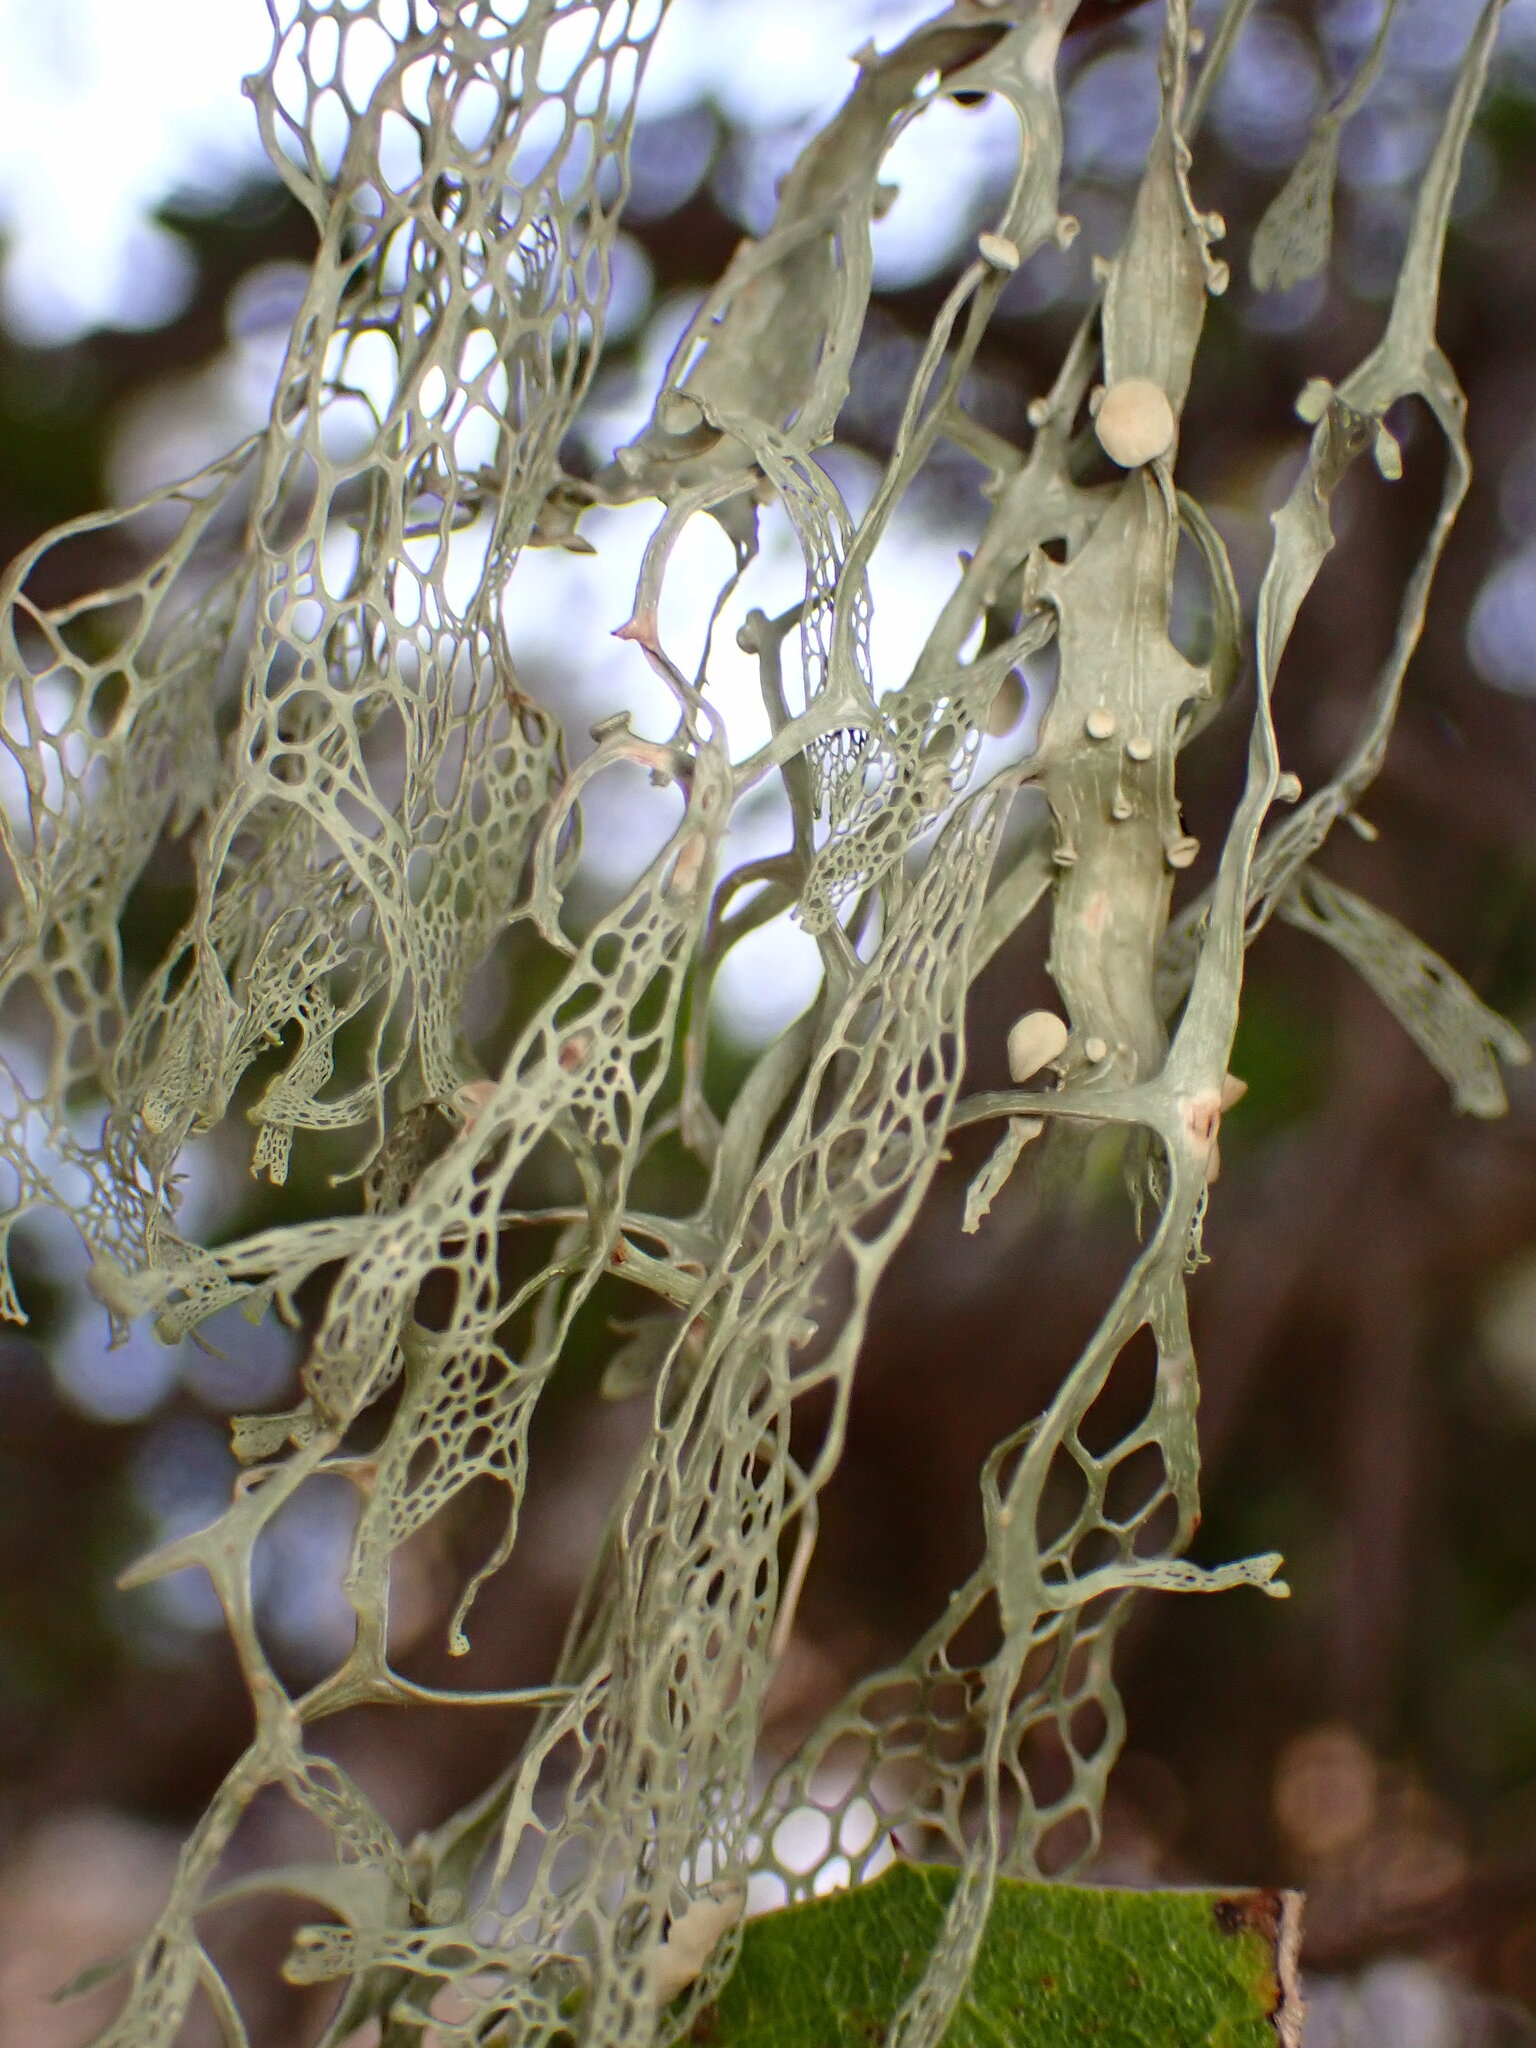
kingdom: Fungi
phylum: Ascomycota
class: Lecanoromycetes
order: Lecanorales
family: Ramalinaceae
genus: Ramalina
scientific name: Ramalina menziesii
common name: Lace lichen
